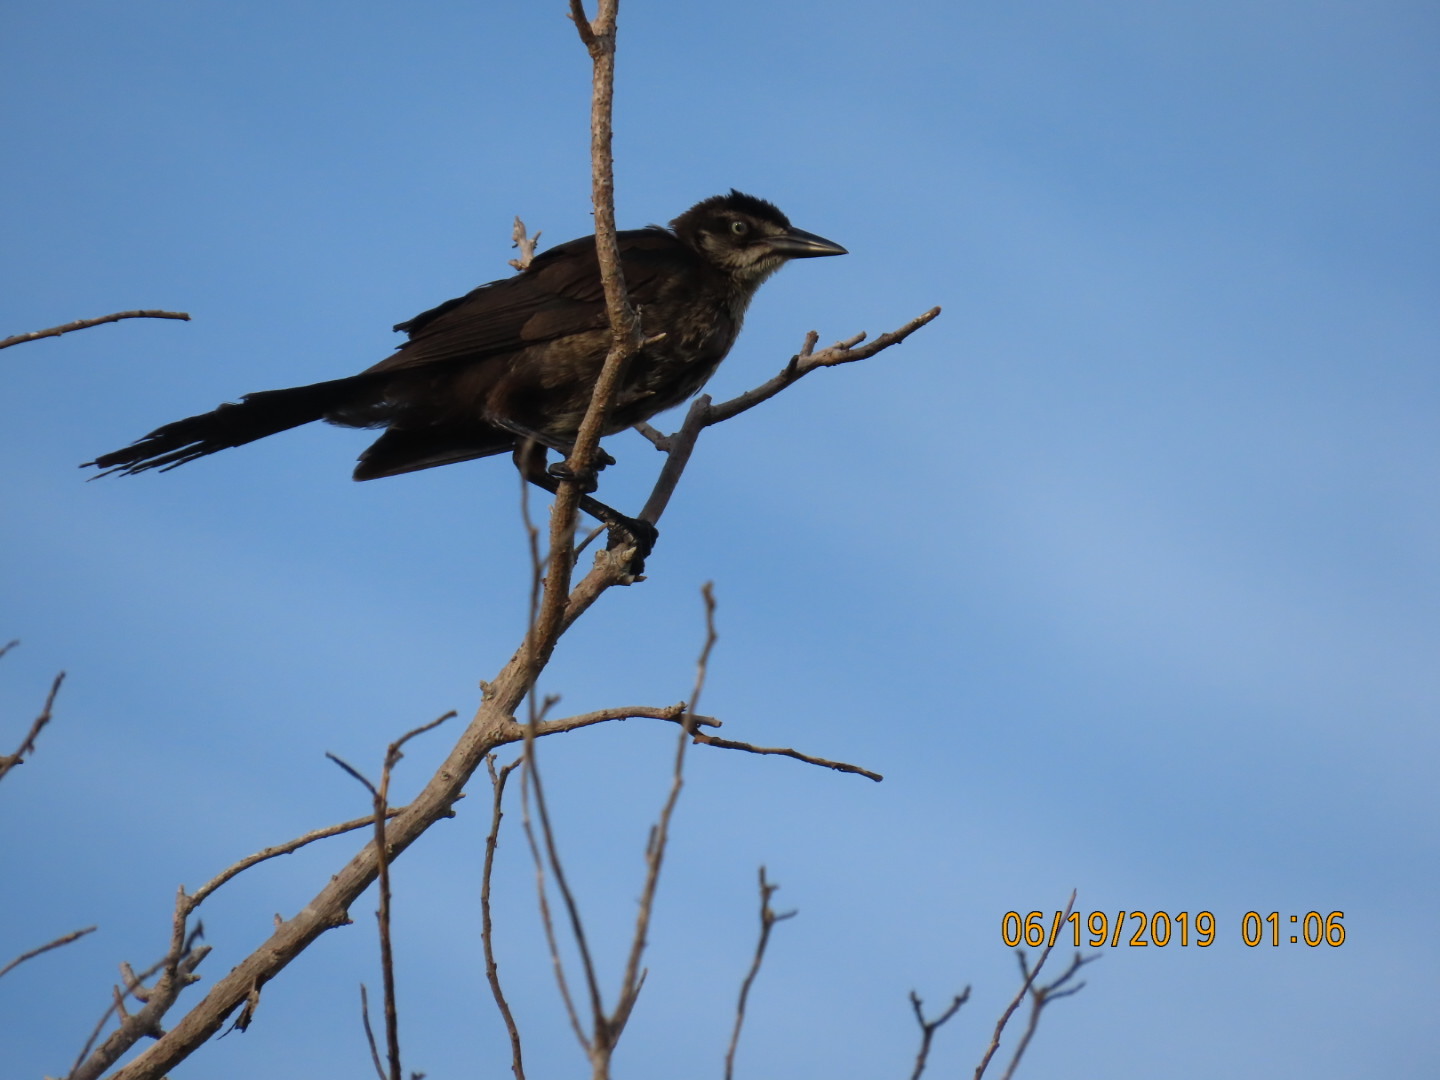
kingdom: Animalia
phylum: Chordata
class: Aves
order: Passeriformes
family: Icteridae
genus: Quiscalus
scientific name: Quiscalus mexicanus
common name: Great-tailed grackle
